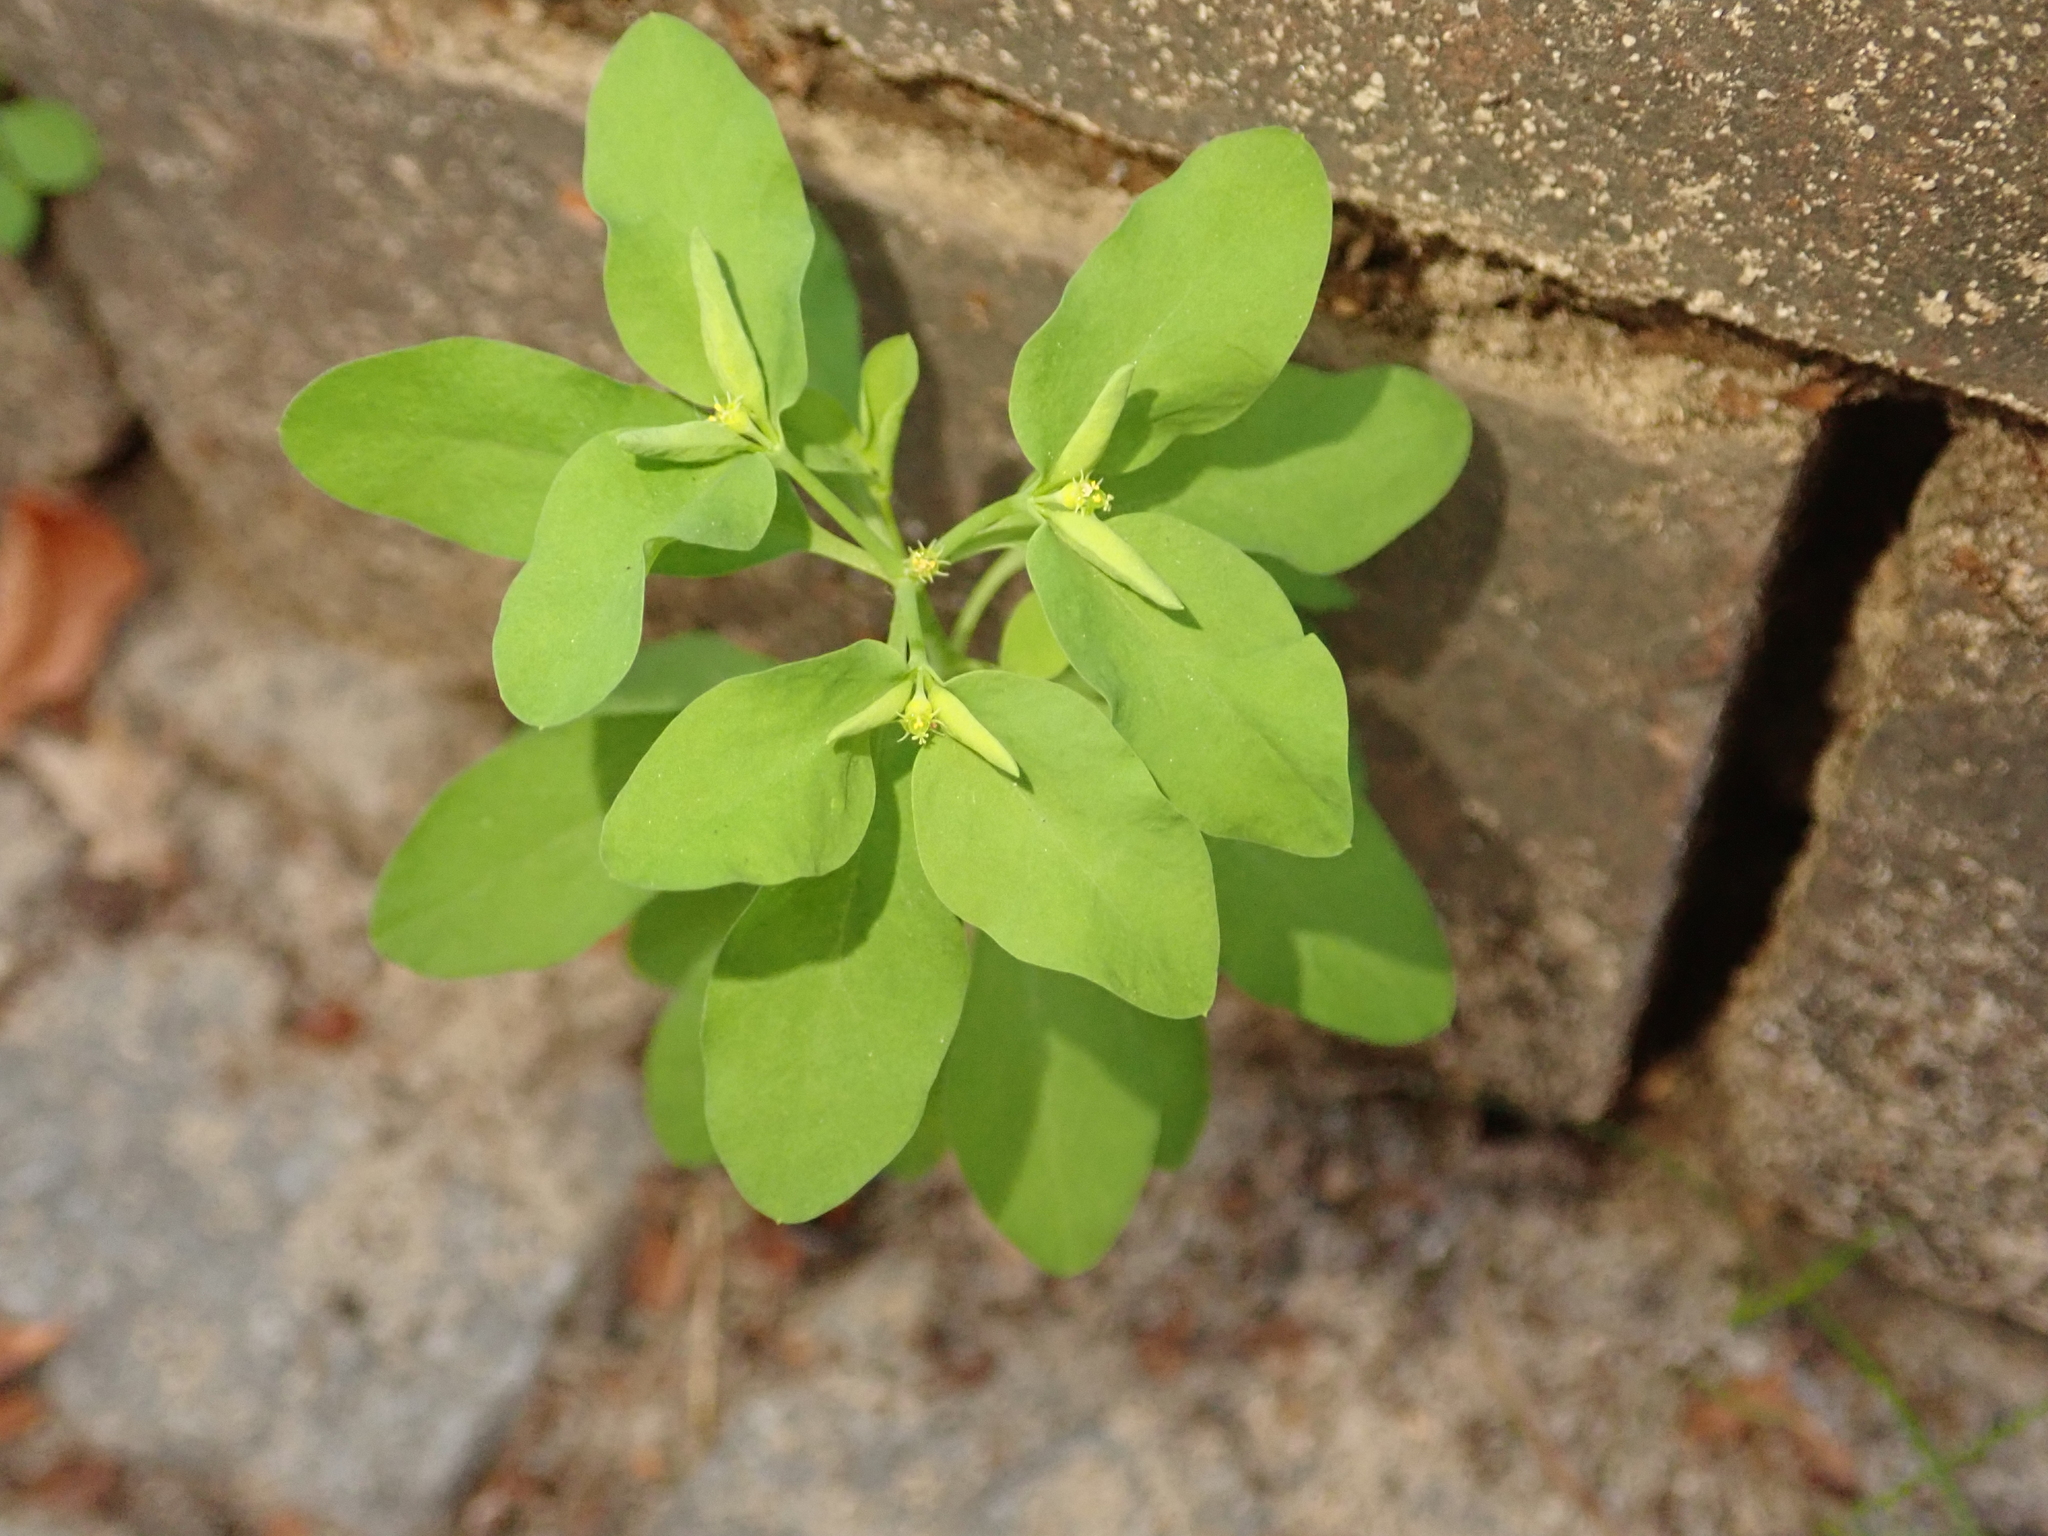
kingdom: Plantae
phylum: Tracheophyta
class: Magnoliopsida
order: Malpighiales
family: Euphorbiaceae
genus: Euphorbia
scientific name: Euphorbia peplus
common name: Petty spurge
